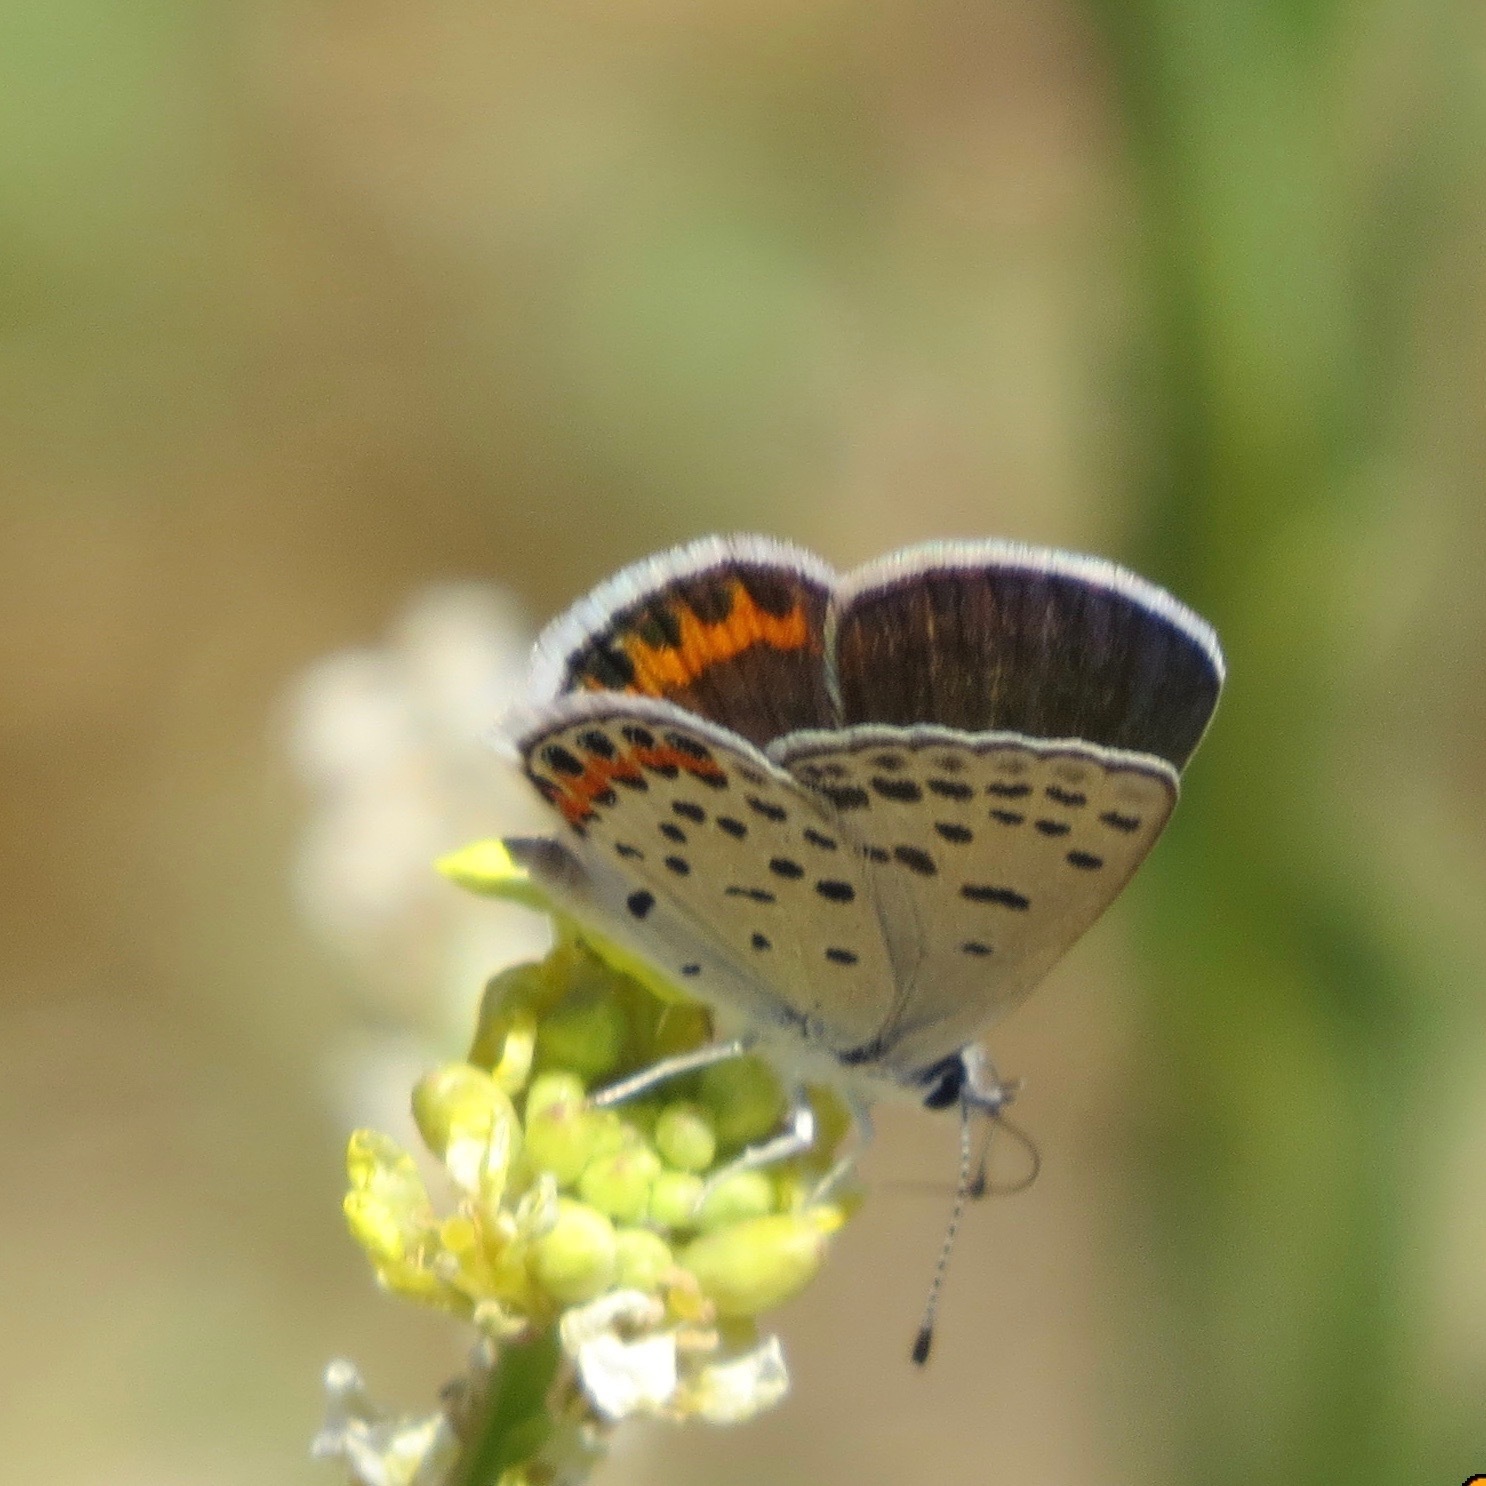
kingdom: Animalia
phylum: Arthropoda
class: Insecta
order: Lepidoptera
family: Lycaenidae
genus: Icaricia
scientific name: Icaricia acmon
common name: Acmon blue
